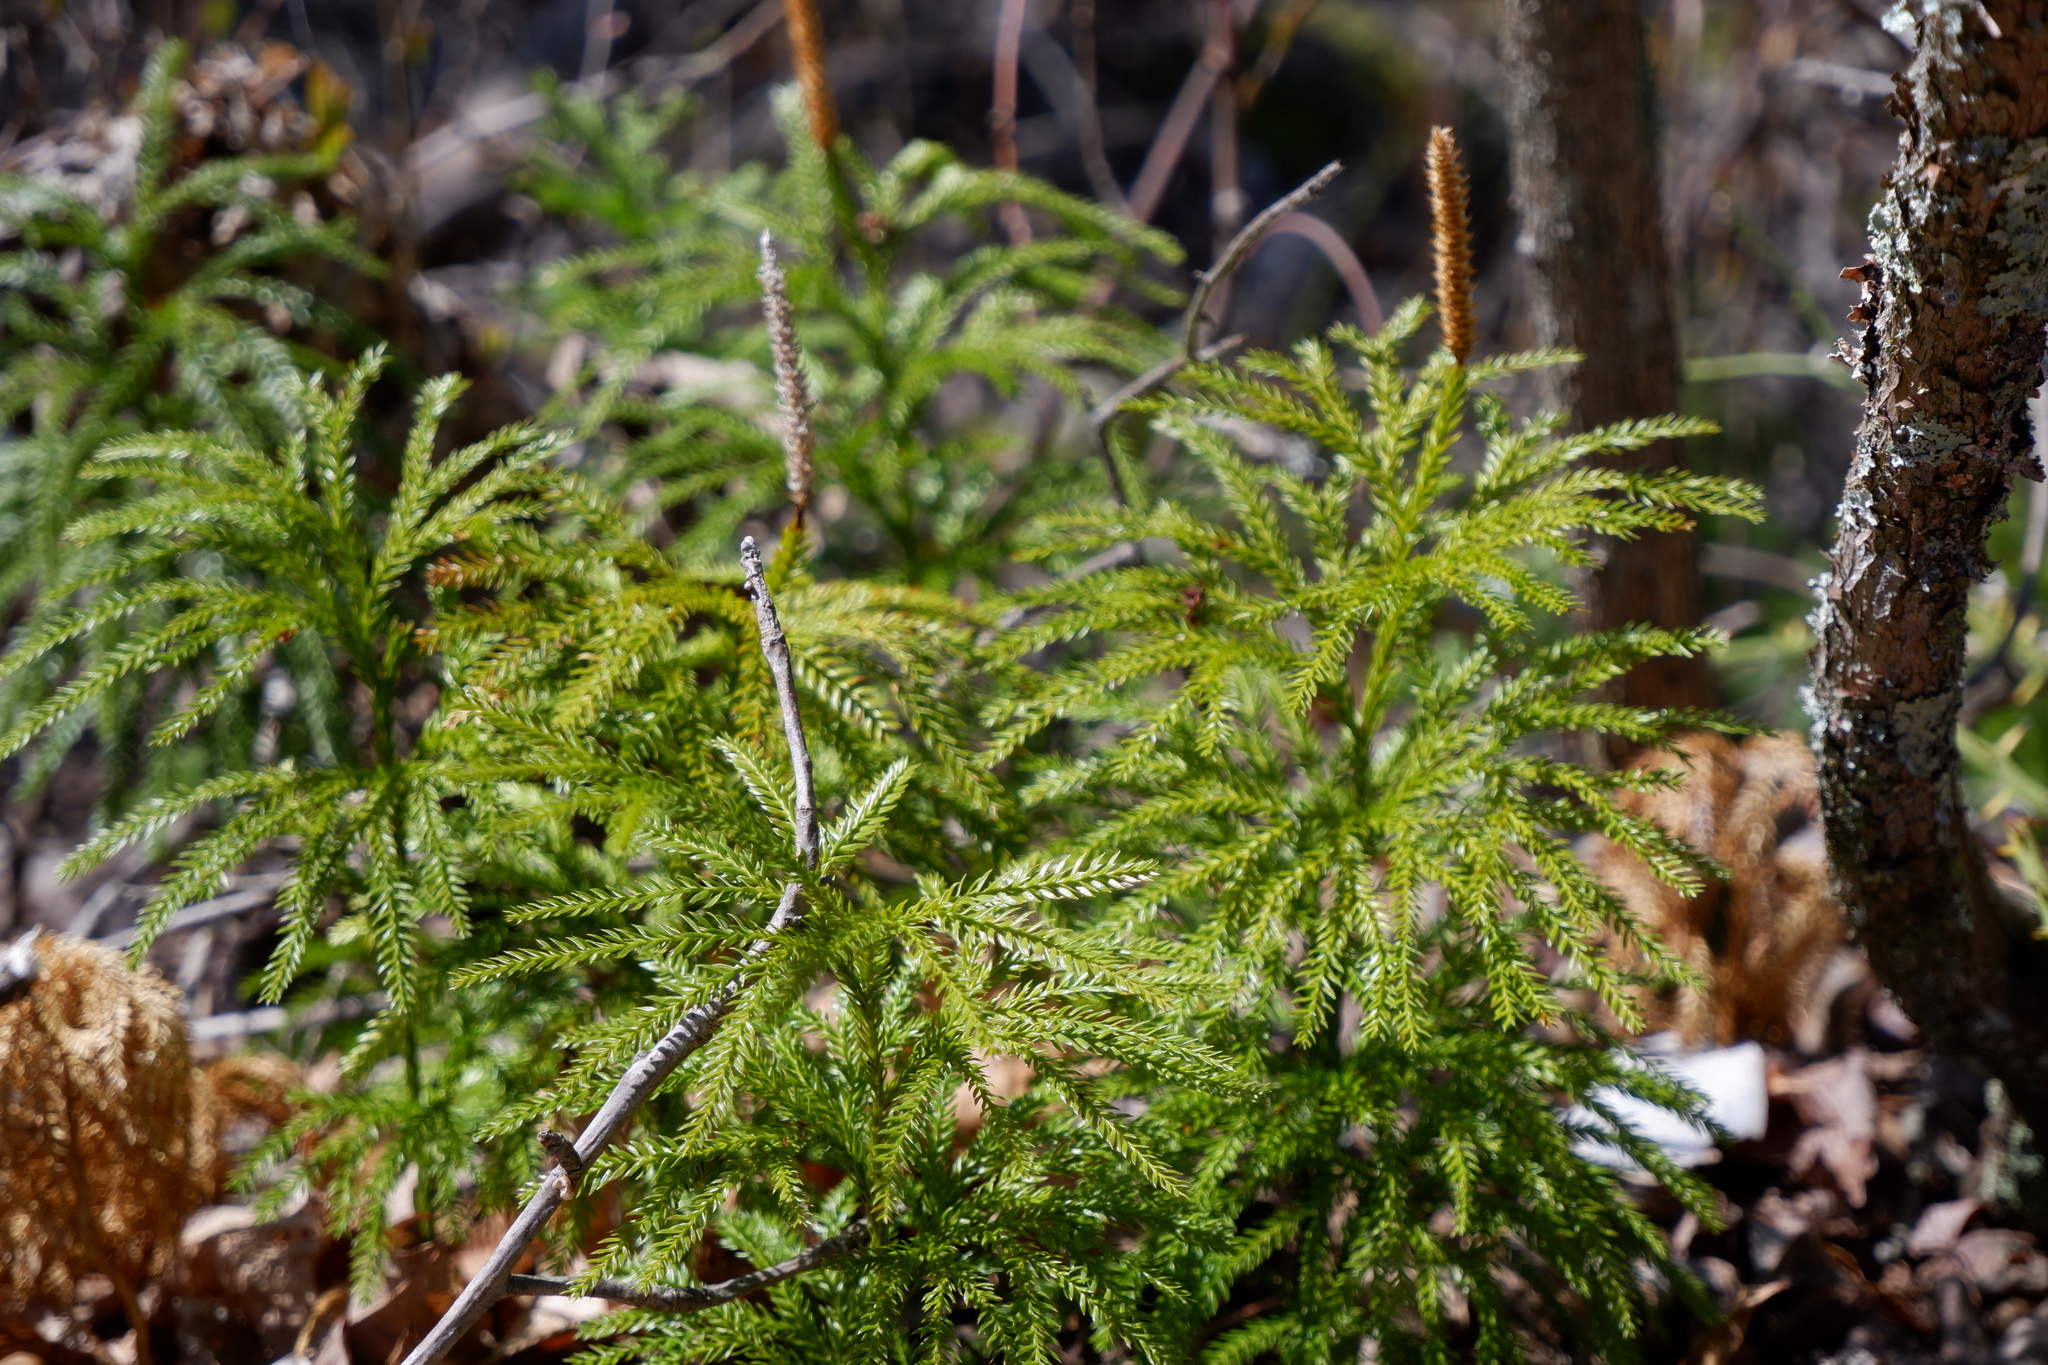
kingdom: Plantae
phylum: Tracheophyta
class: Lycopodiopsida
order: Lycopodiales
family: Lycopodiaceae
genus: Dendrolycopodium
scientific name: Dendrolycopodium obscurum
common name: Common ground-pine
